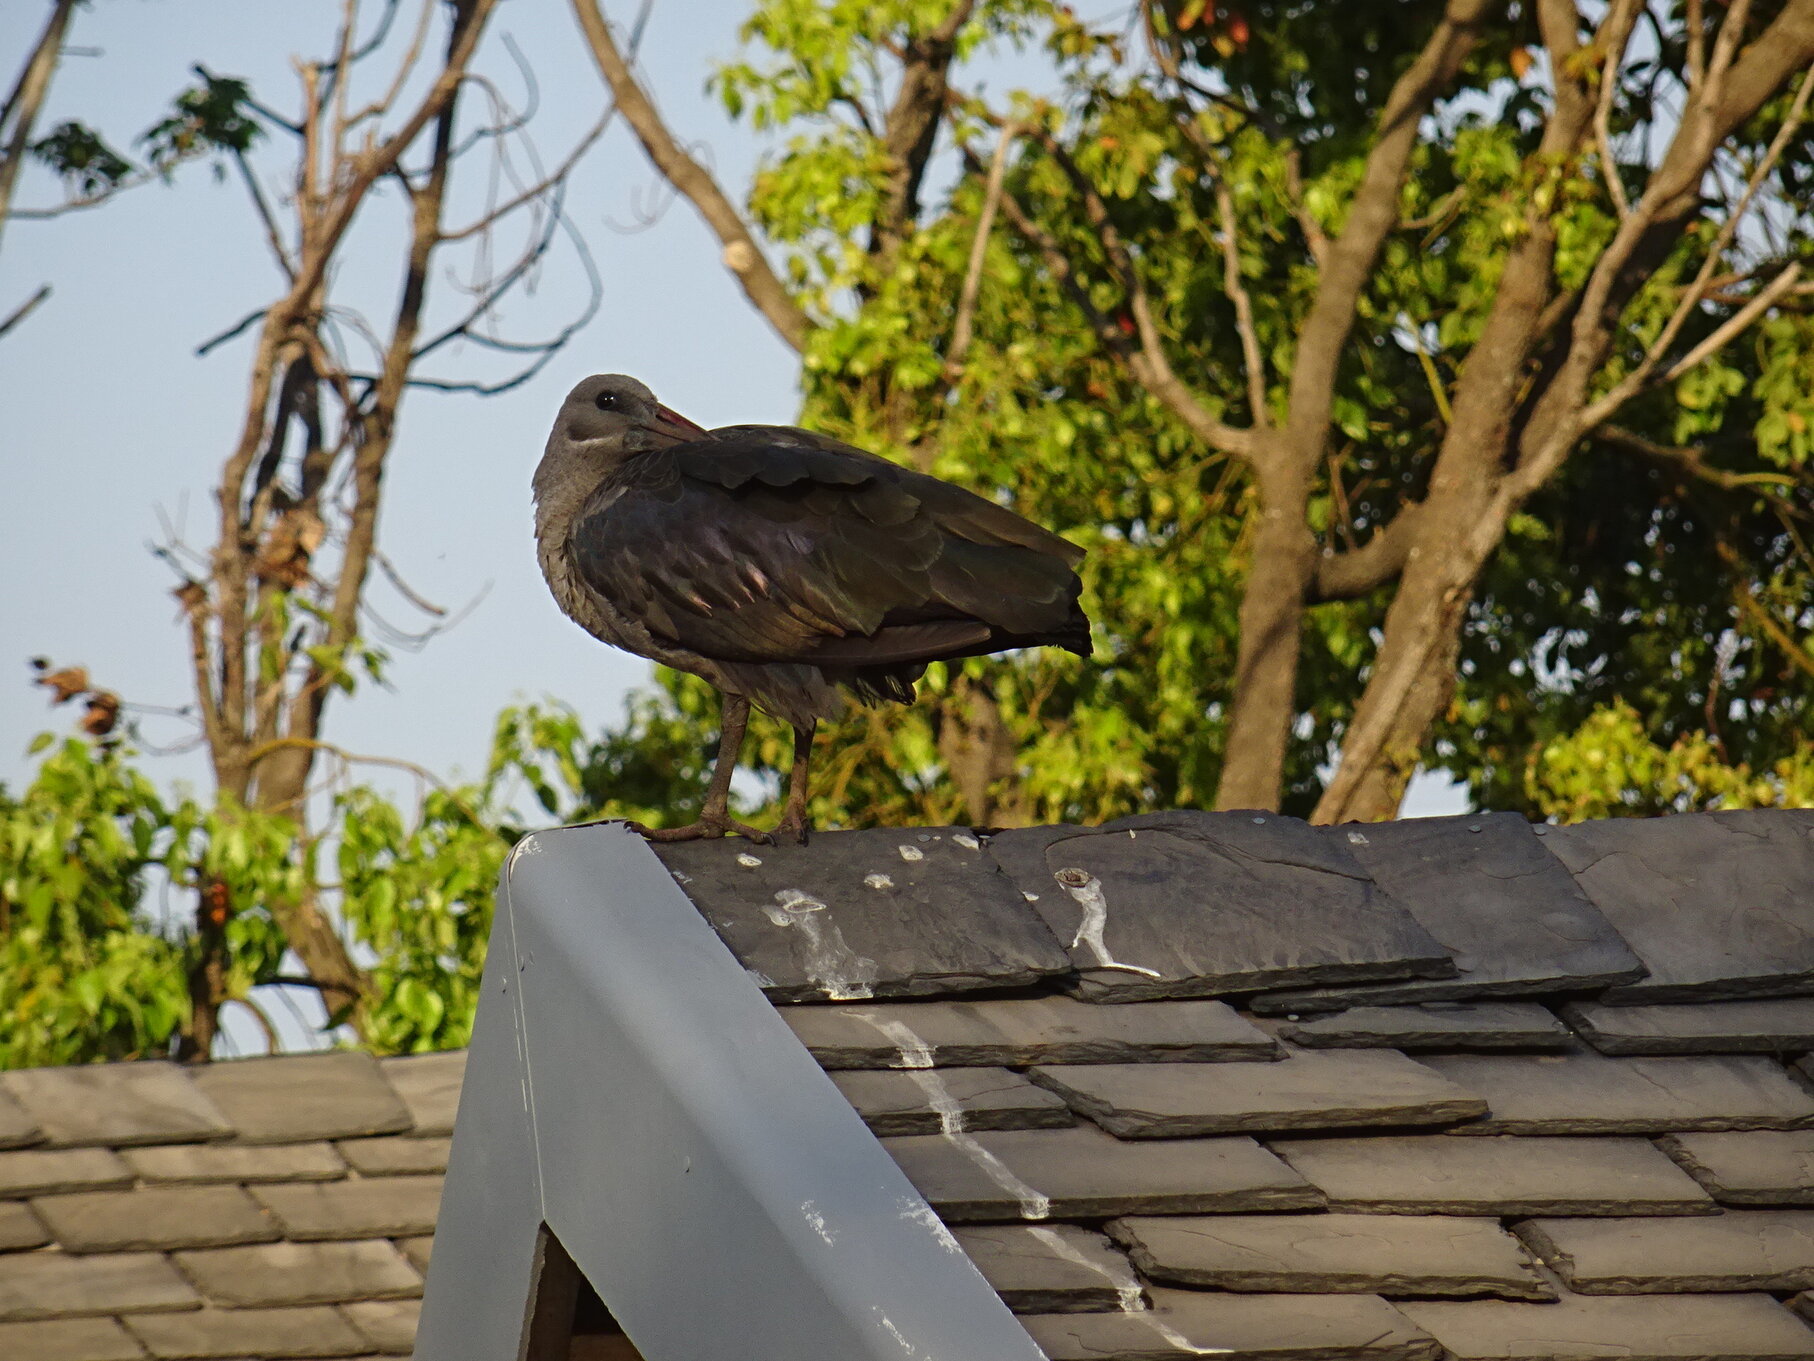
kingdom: Animalia
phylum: Chordata
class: Aves
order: Pelecaniformes
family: Threskiornithidae
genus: Bostrychia
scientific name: Bostrychia hagedash
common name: Hadada ibis
